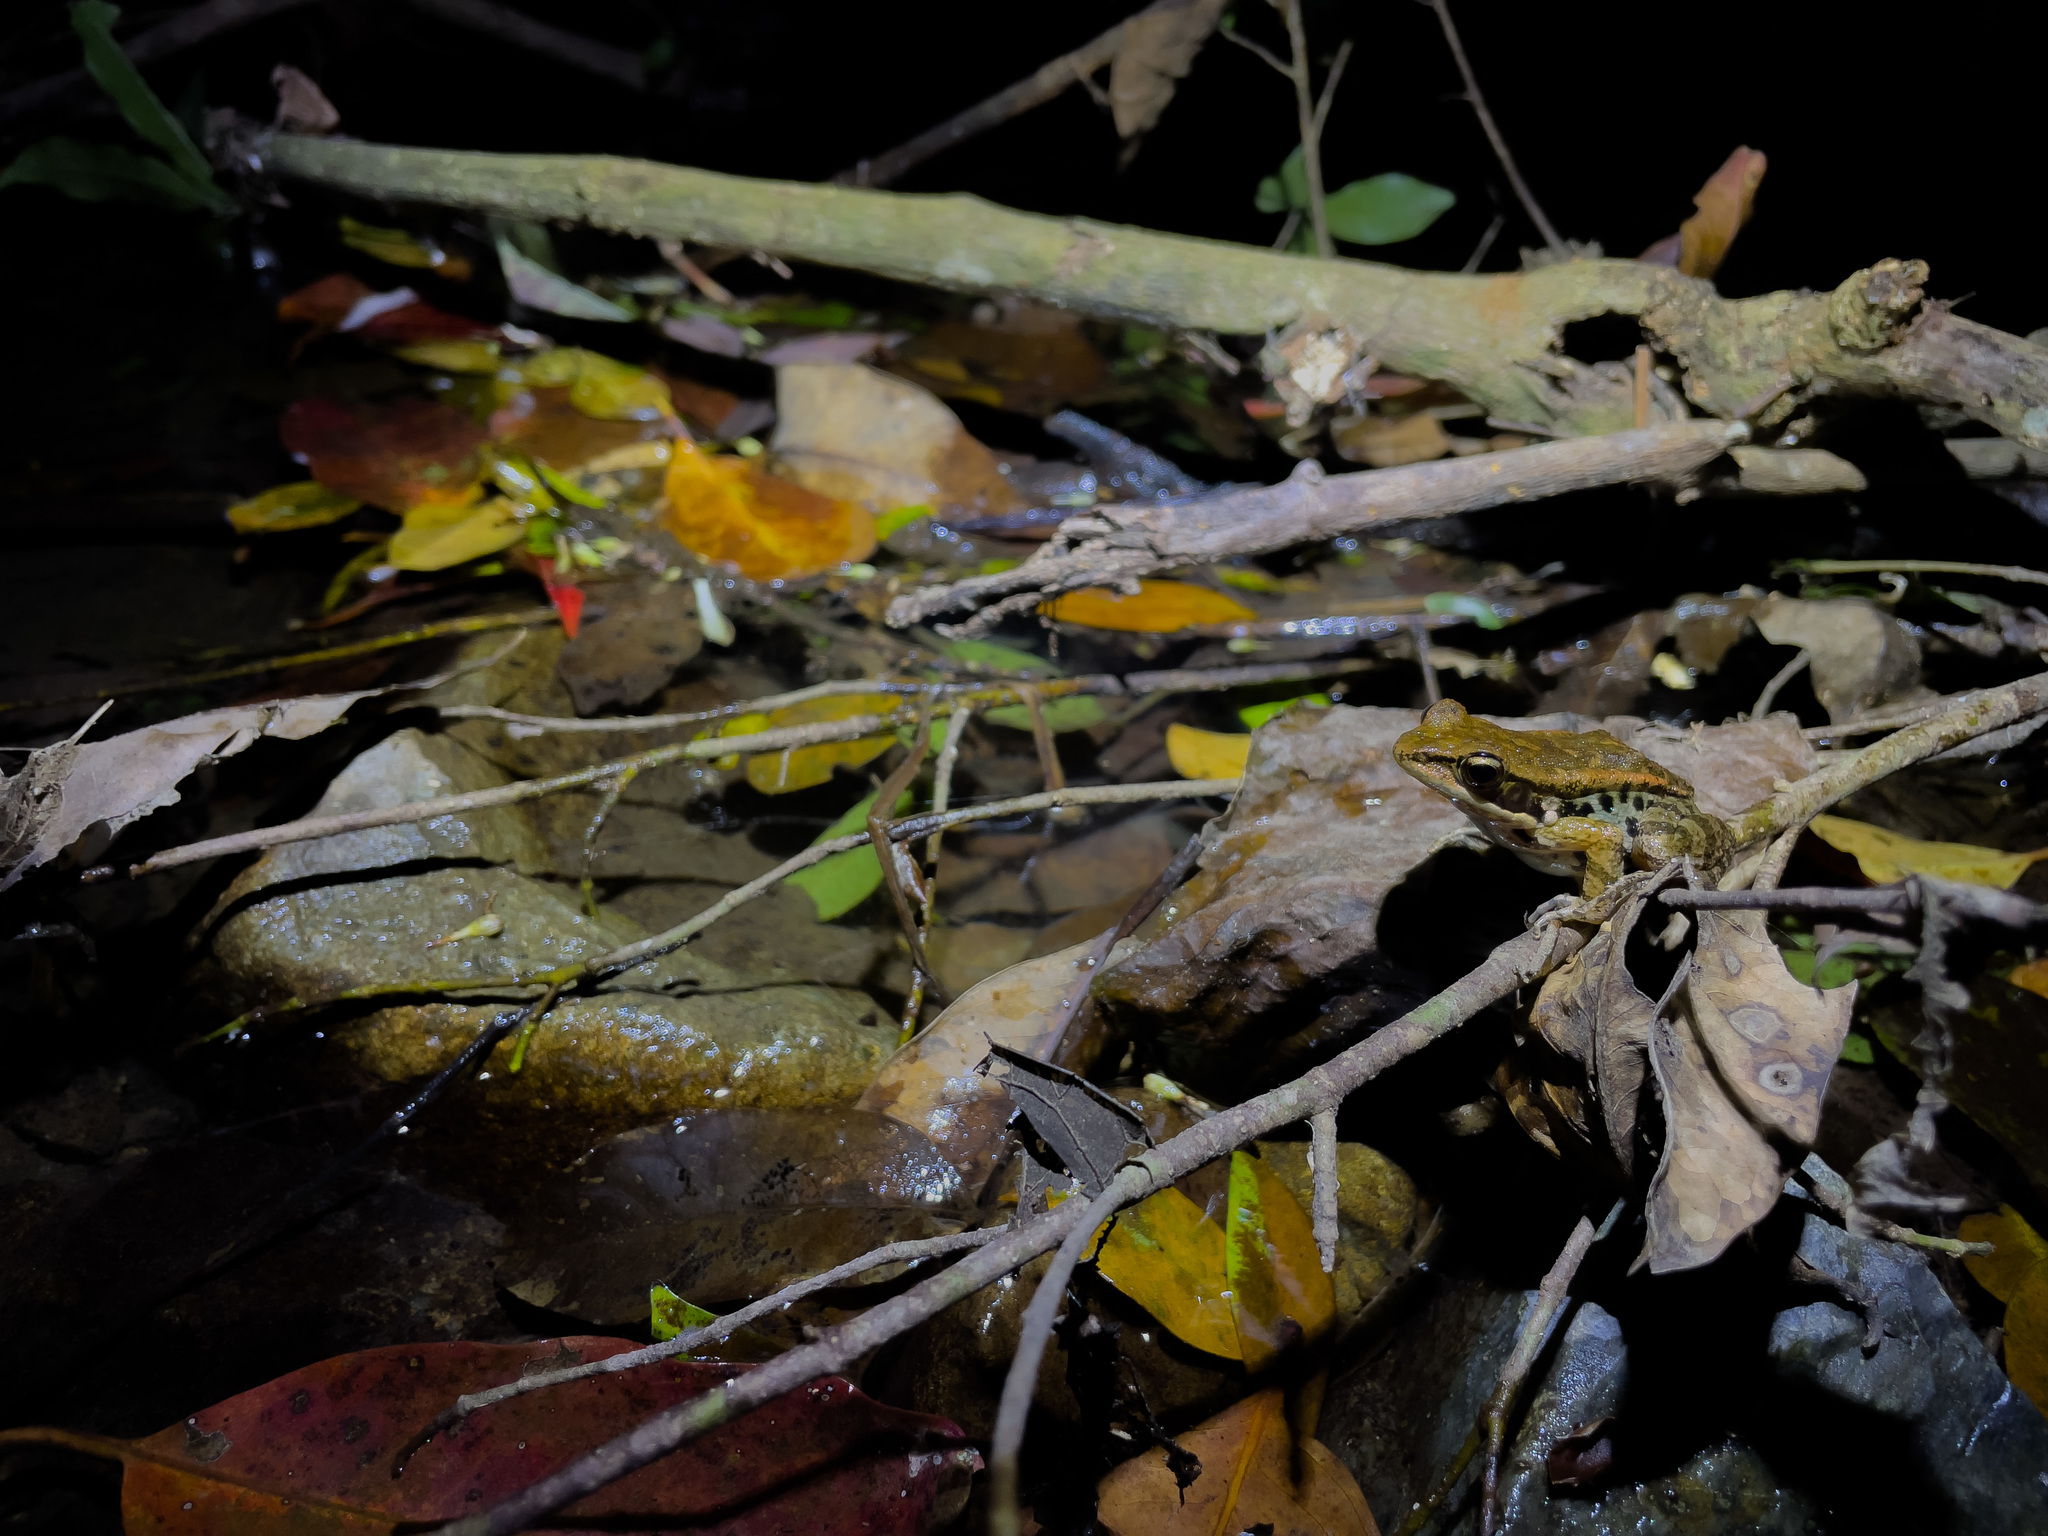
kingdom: Animalia
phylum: Chordata
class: Amphibia
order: Anura
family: Ranidae
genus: Hylarana
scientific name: Hylarana latouchii
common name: Broad-folded frog
